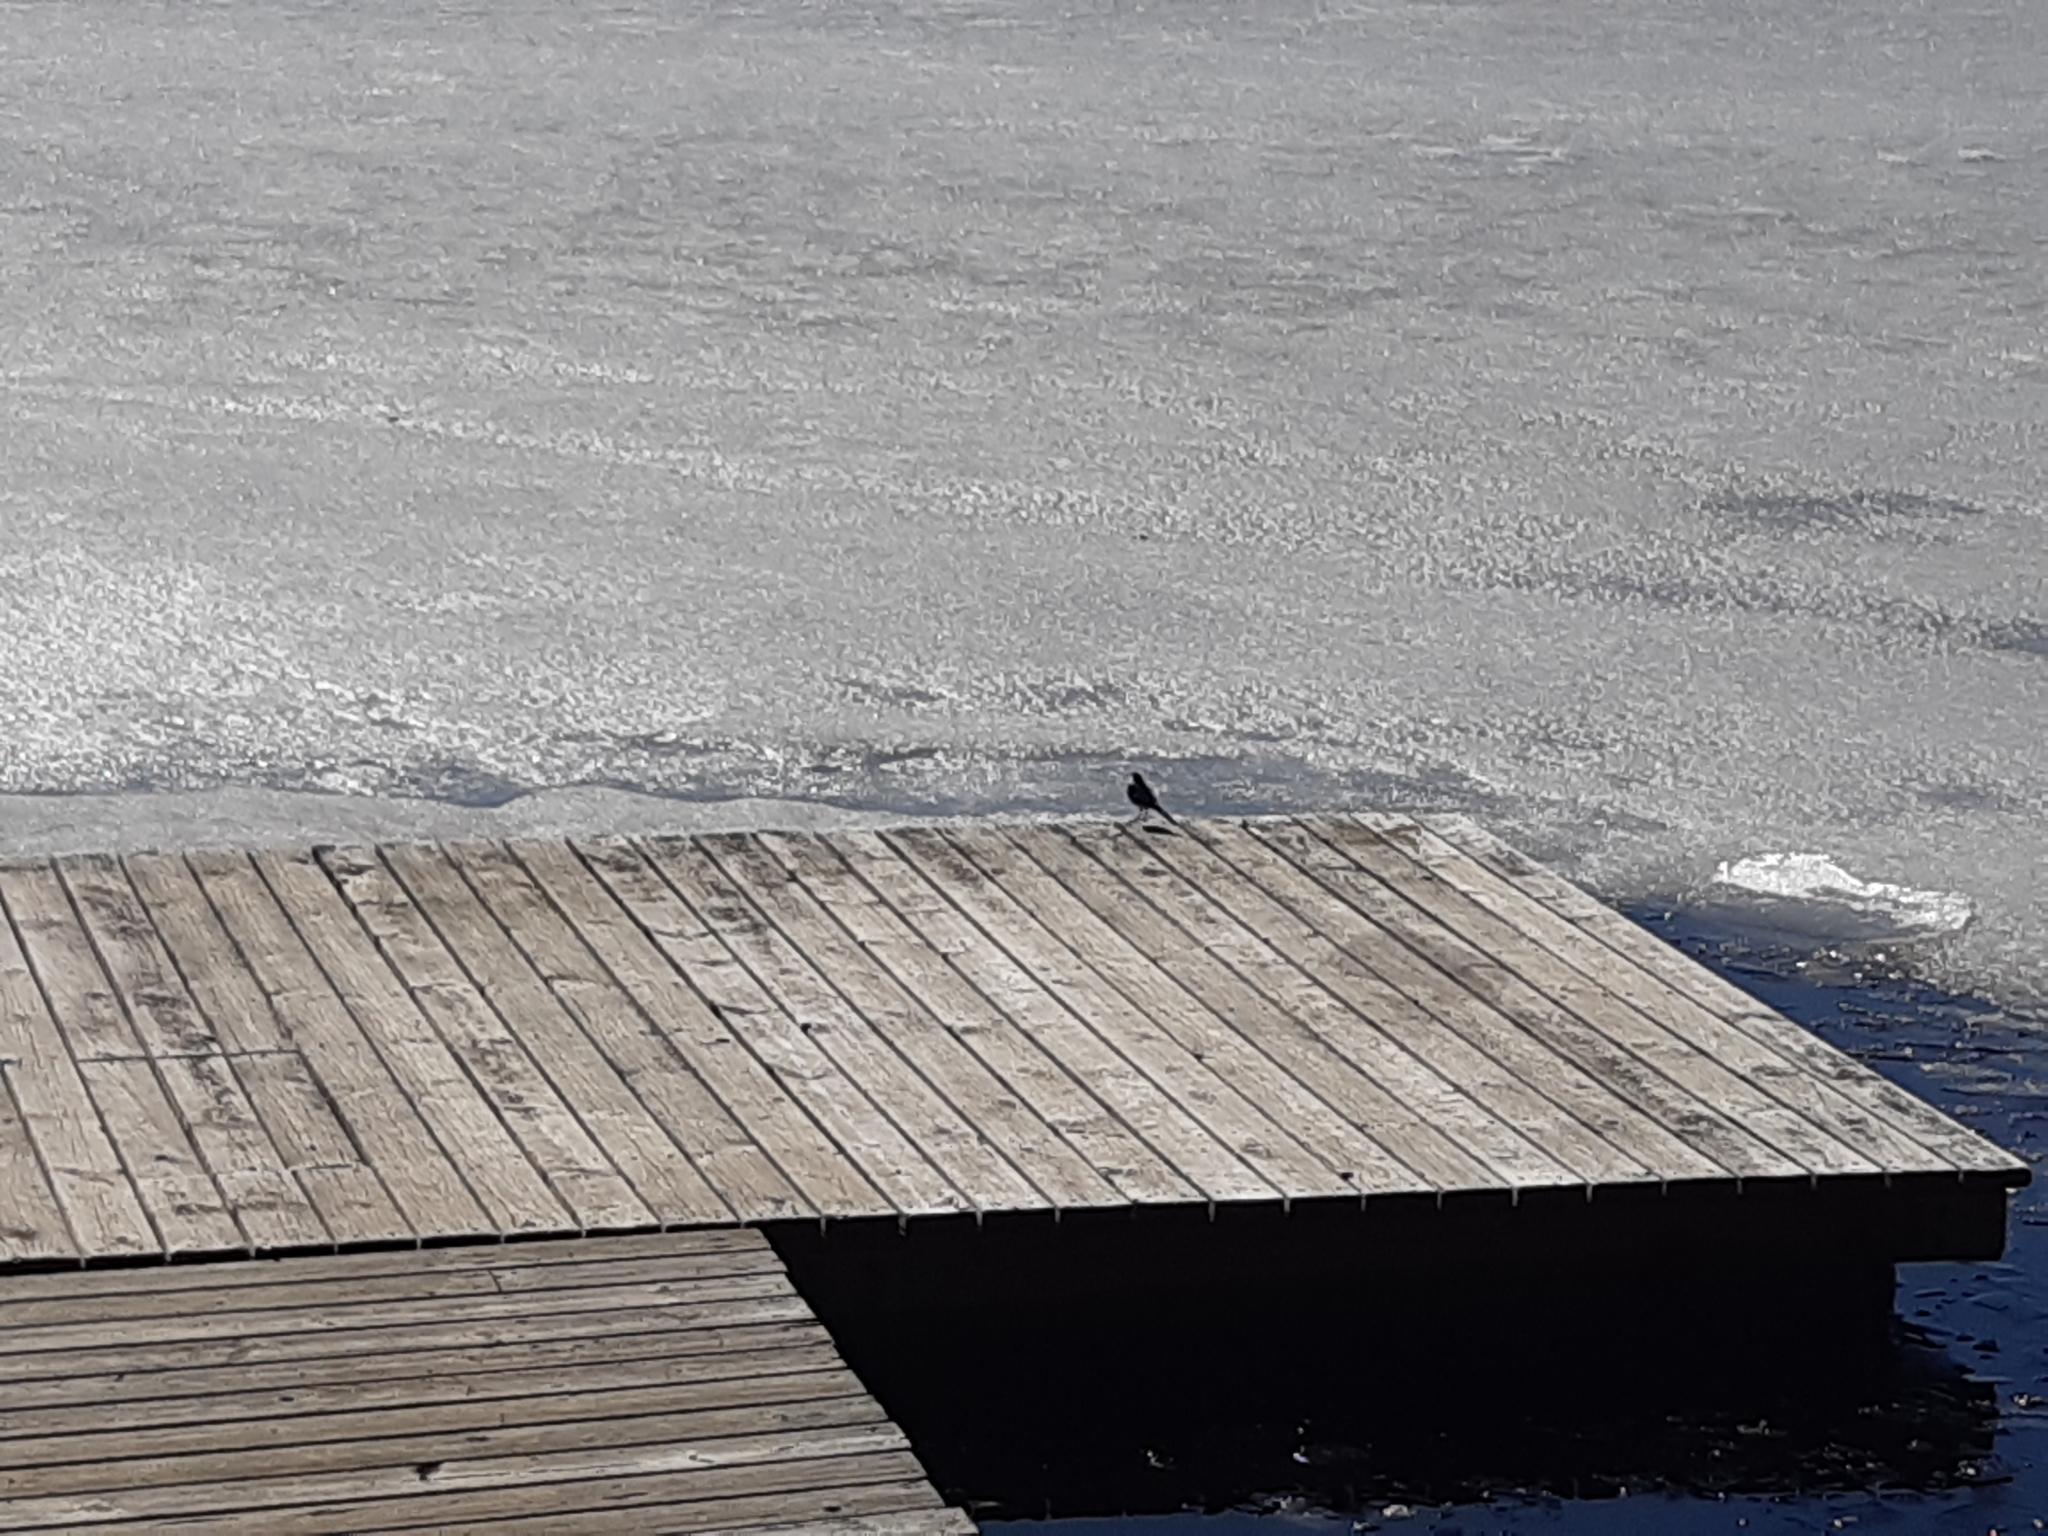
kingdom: Animalia
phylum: Chordata
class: Aves
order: Passeriformes
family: Motacillidae
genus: Motacilla
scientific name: Motacilla alba
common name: White wagtail
